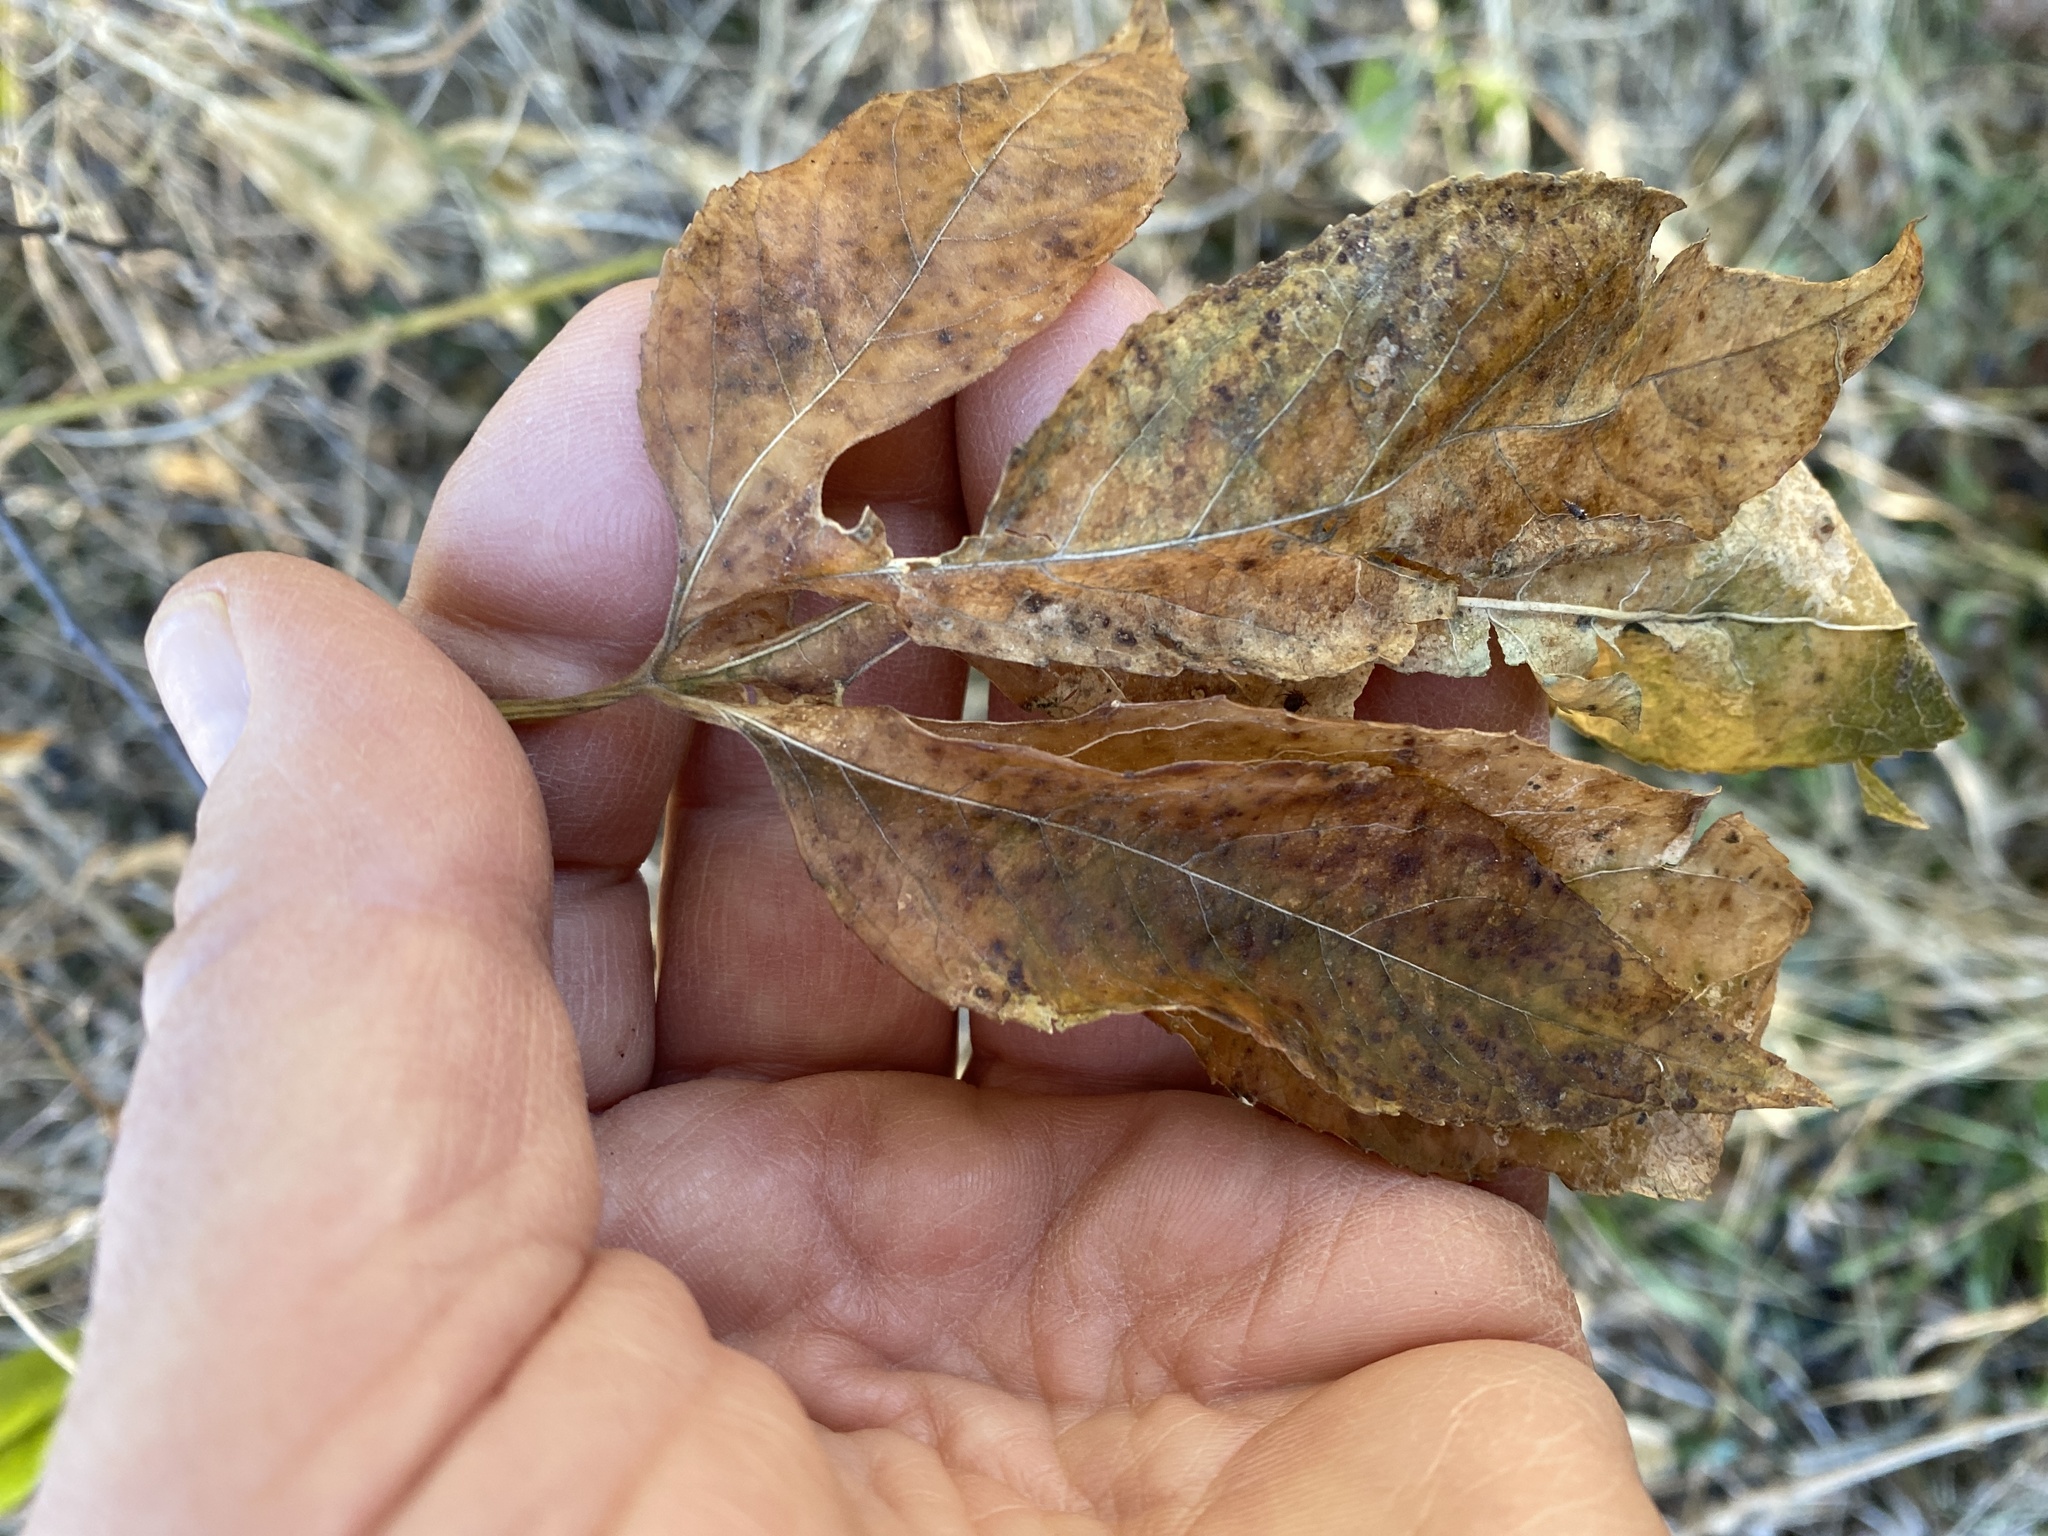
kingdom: Plantae
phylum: Tracheophyta
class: Magnoliopsida
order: Malpighiales
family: Passifloraceae
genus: Passiflora
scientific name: Passiflora
